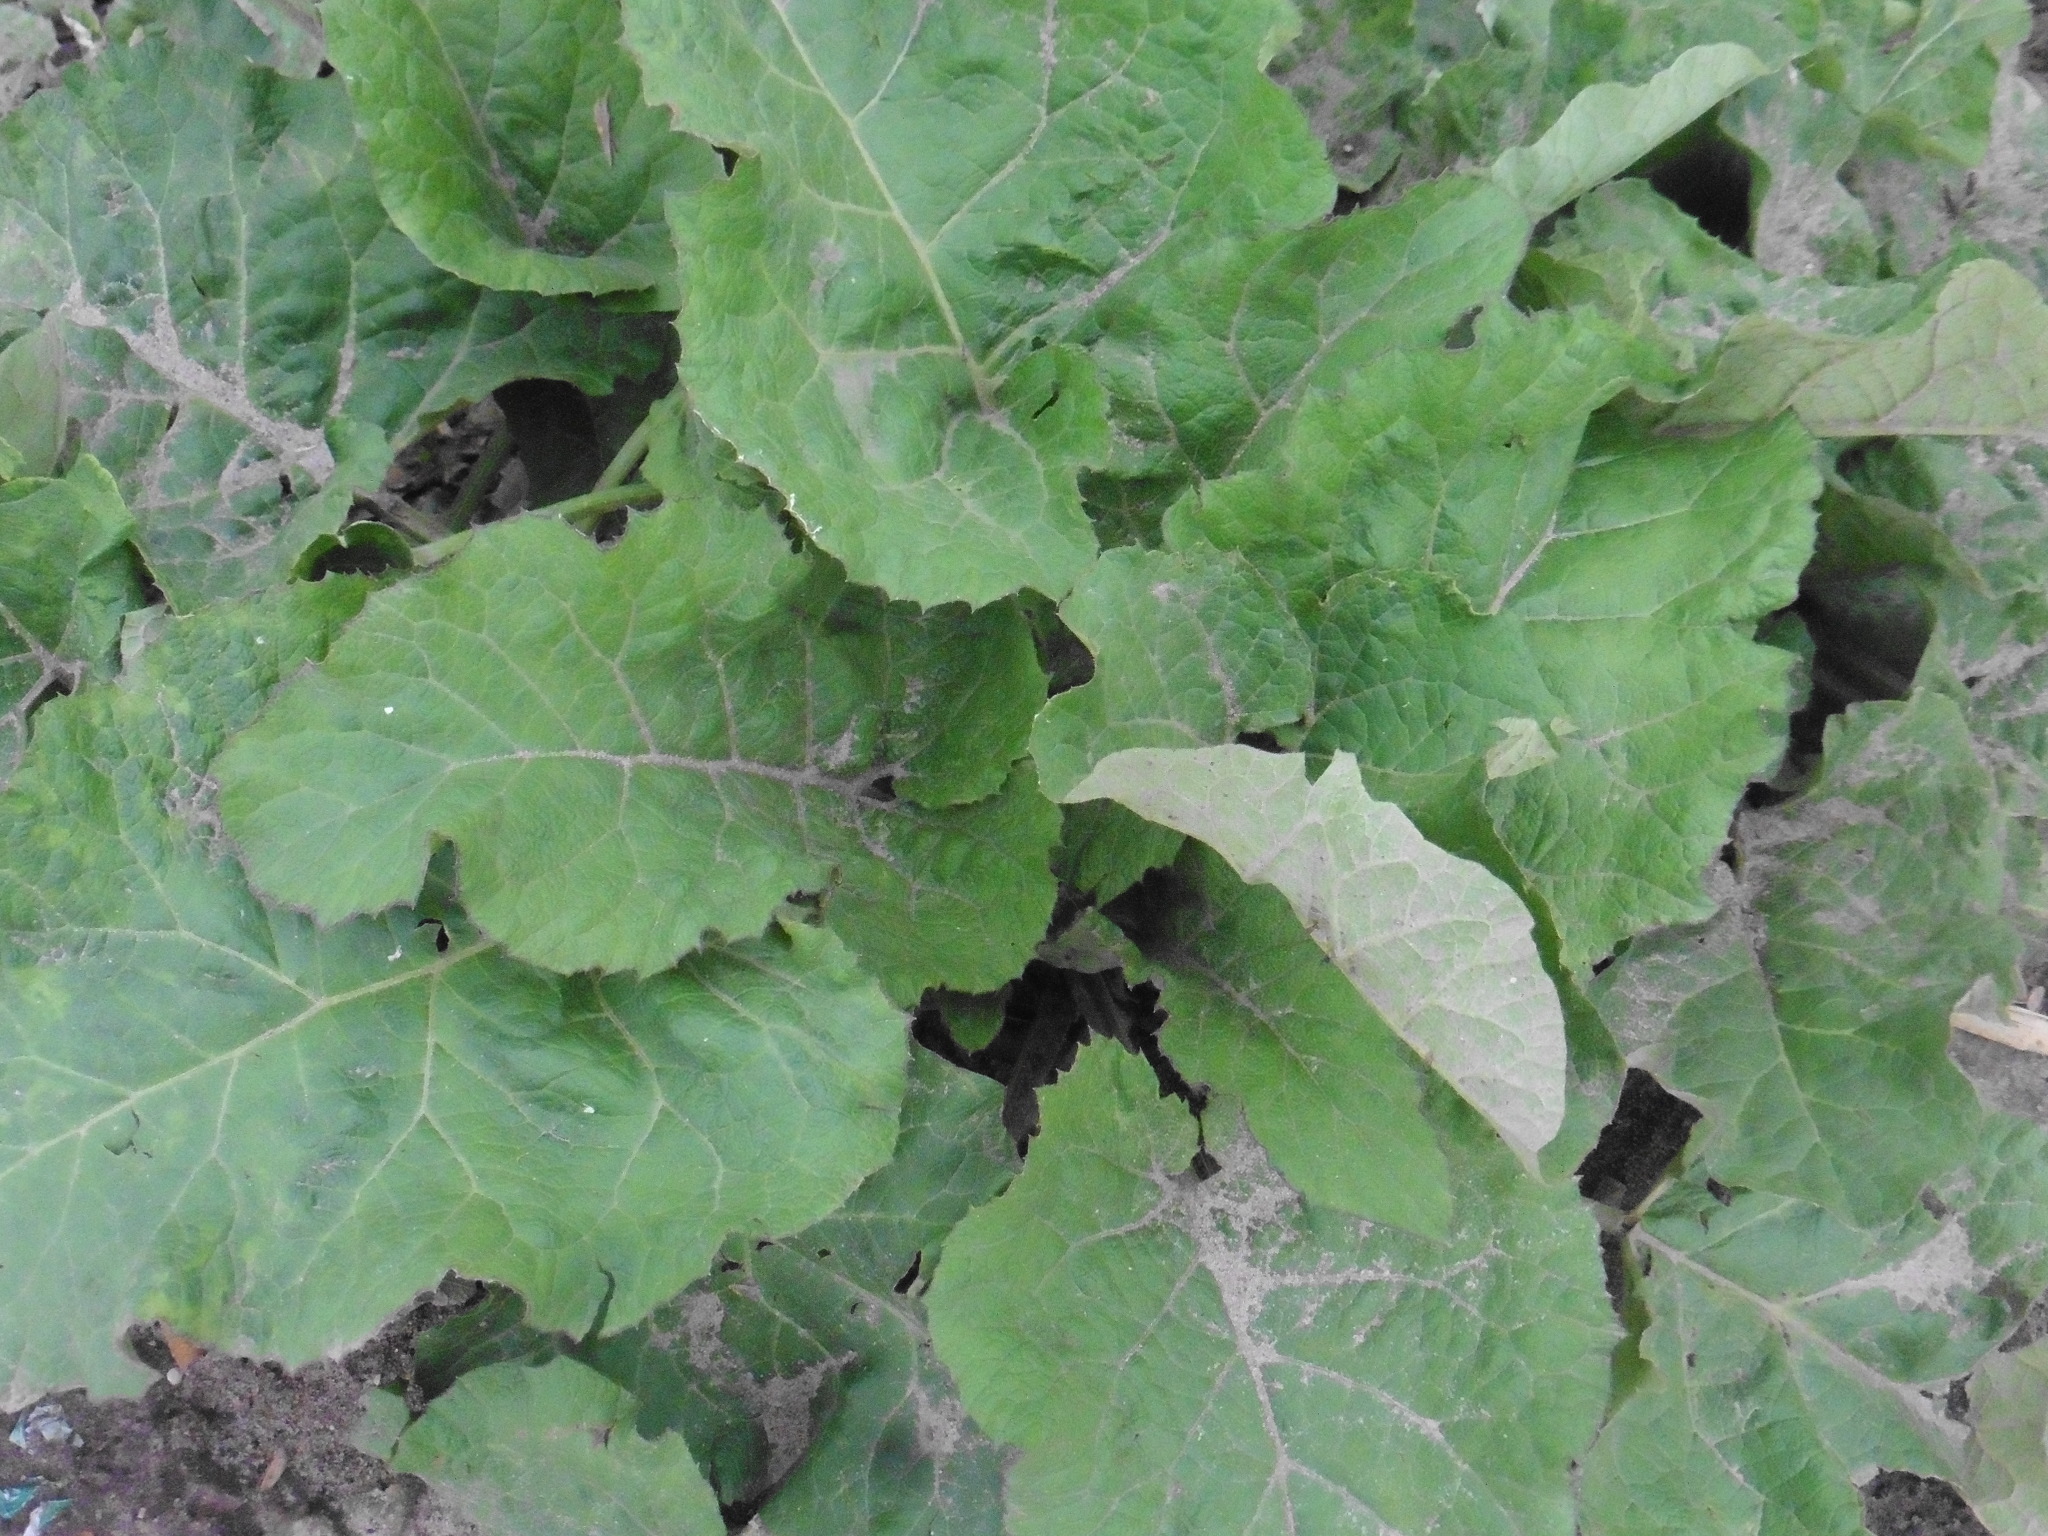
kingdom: Plantae
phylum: Tracheophyta
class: Magnoliopsida
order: Asterales
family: Asteraceae
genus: Arctium
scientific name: Arctium tomentosum
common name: Woolly burdock
